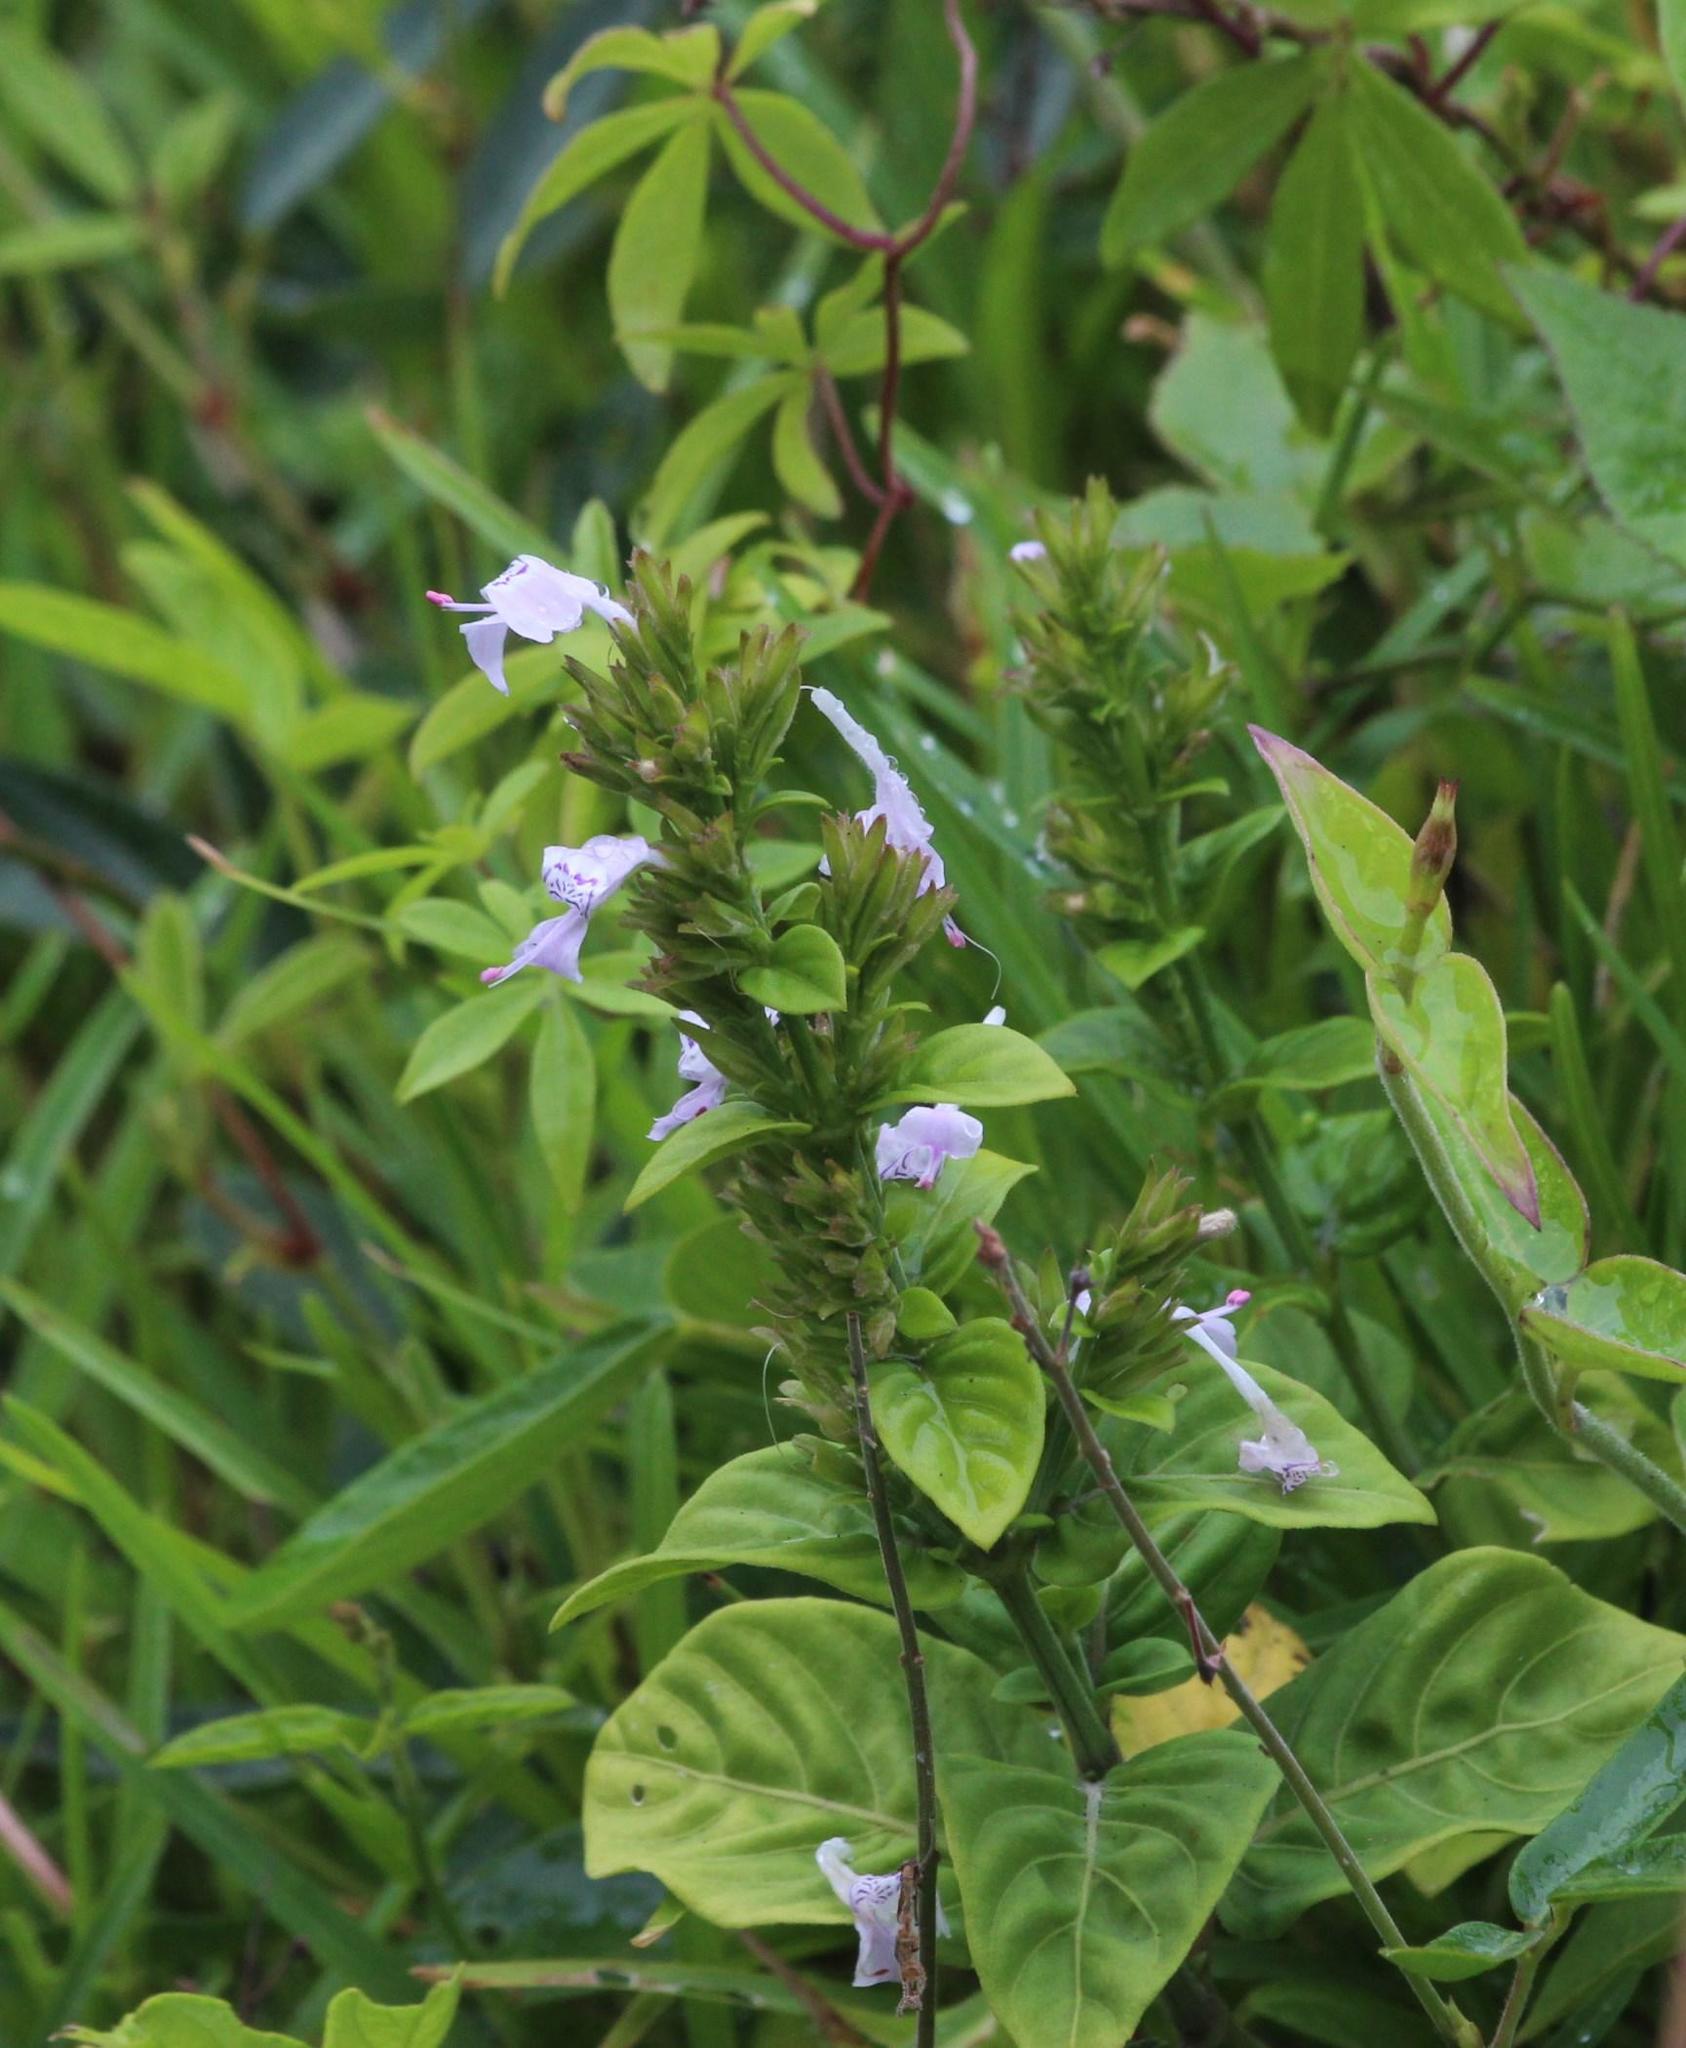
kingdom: Plantae
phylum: Tracheophyta
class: Magnoliopsida
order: Lamiales
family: Acanthaceae
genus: Hypoestes
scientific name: Hypoestes forskaolii
